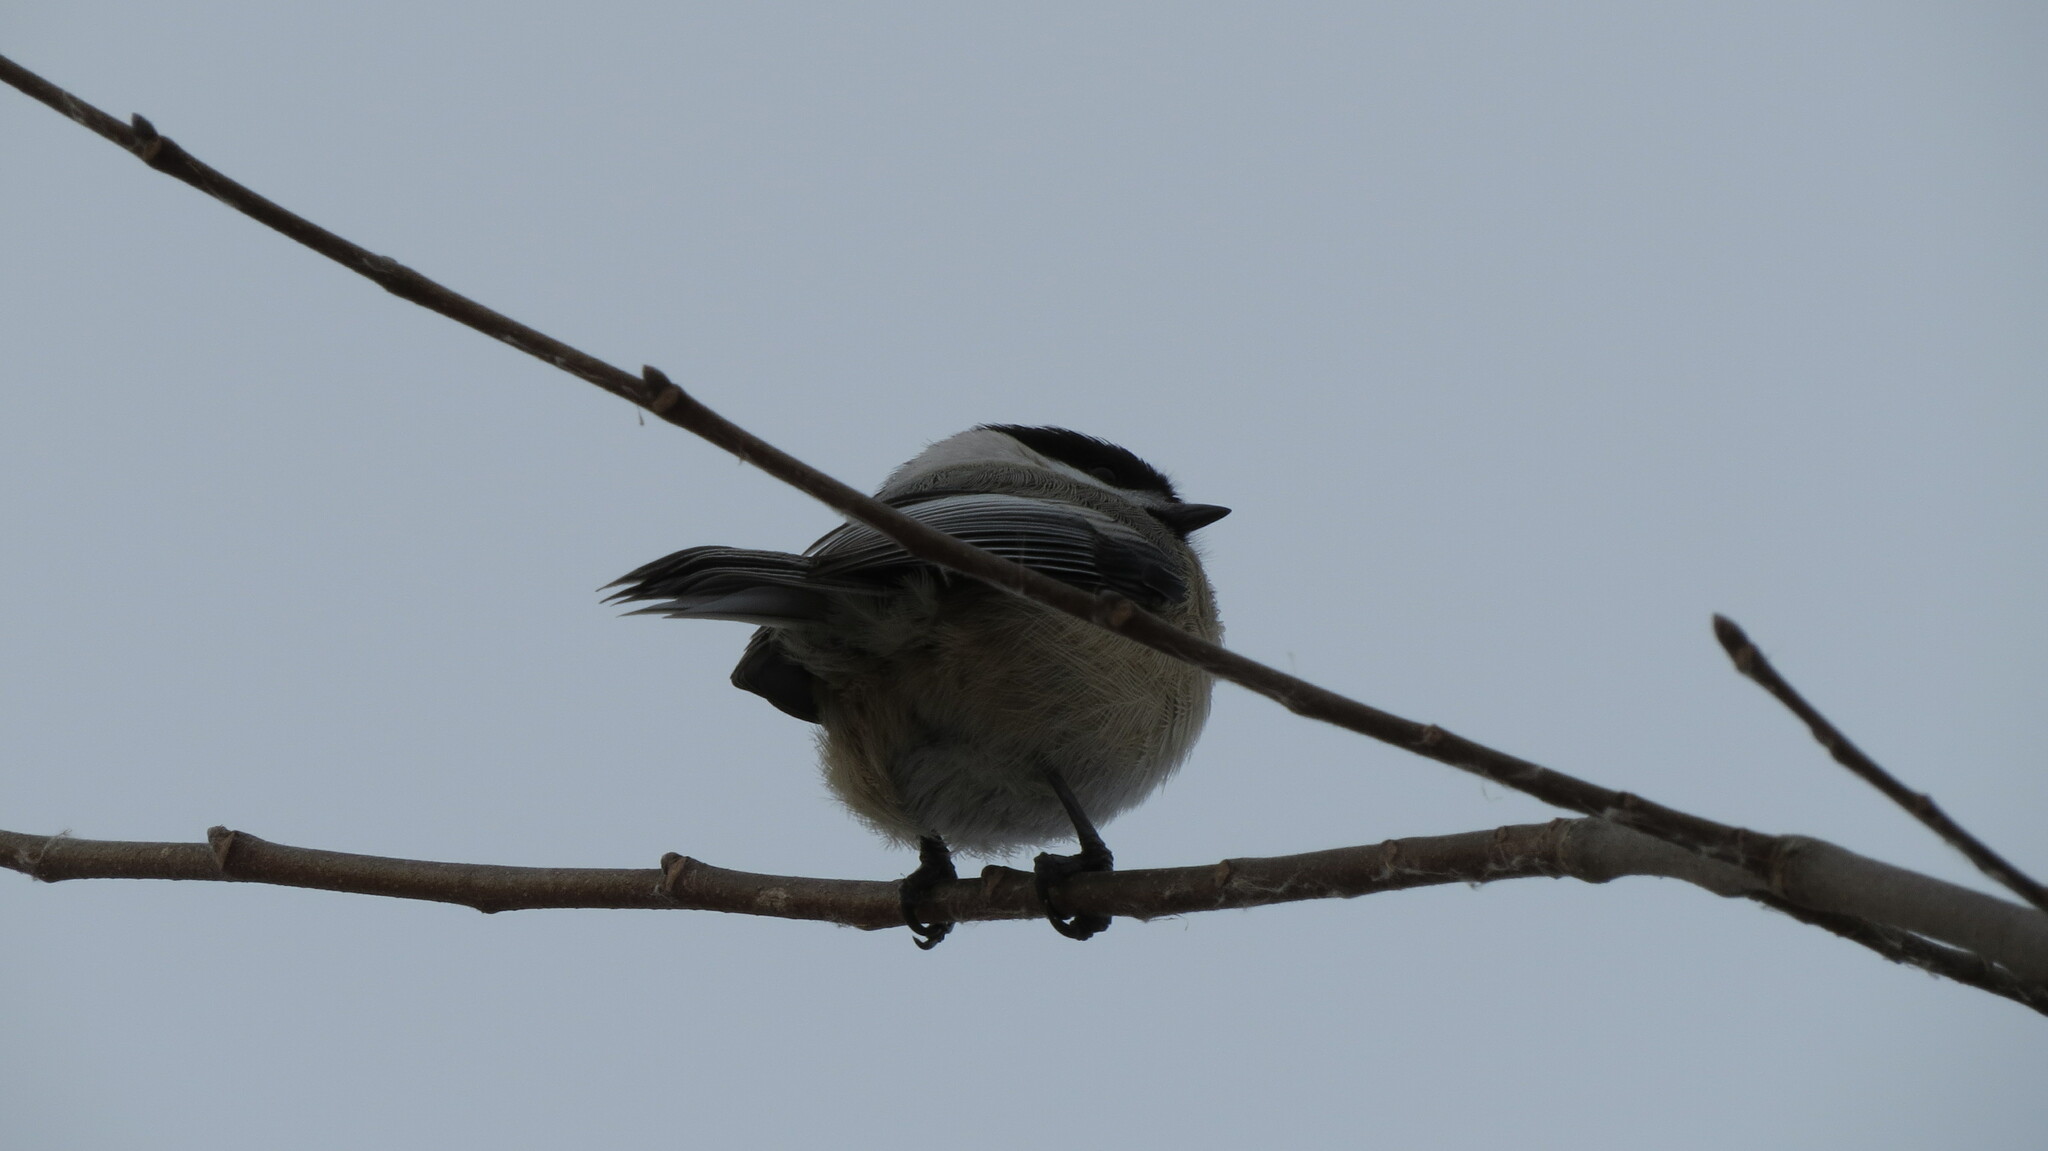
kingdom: Animalia
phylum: Chordata
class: Aves
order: Passeriformes
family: Paridae
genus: Poecile
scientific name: Poecile atricapillus
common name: Black-capped chickadee
